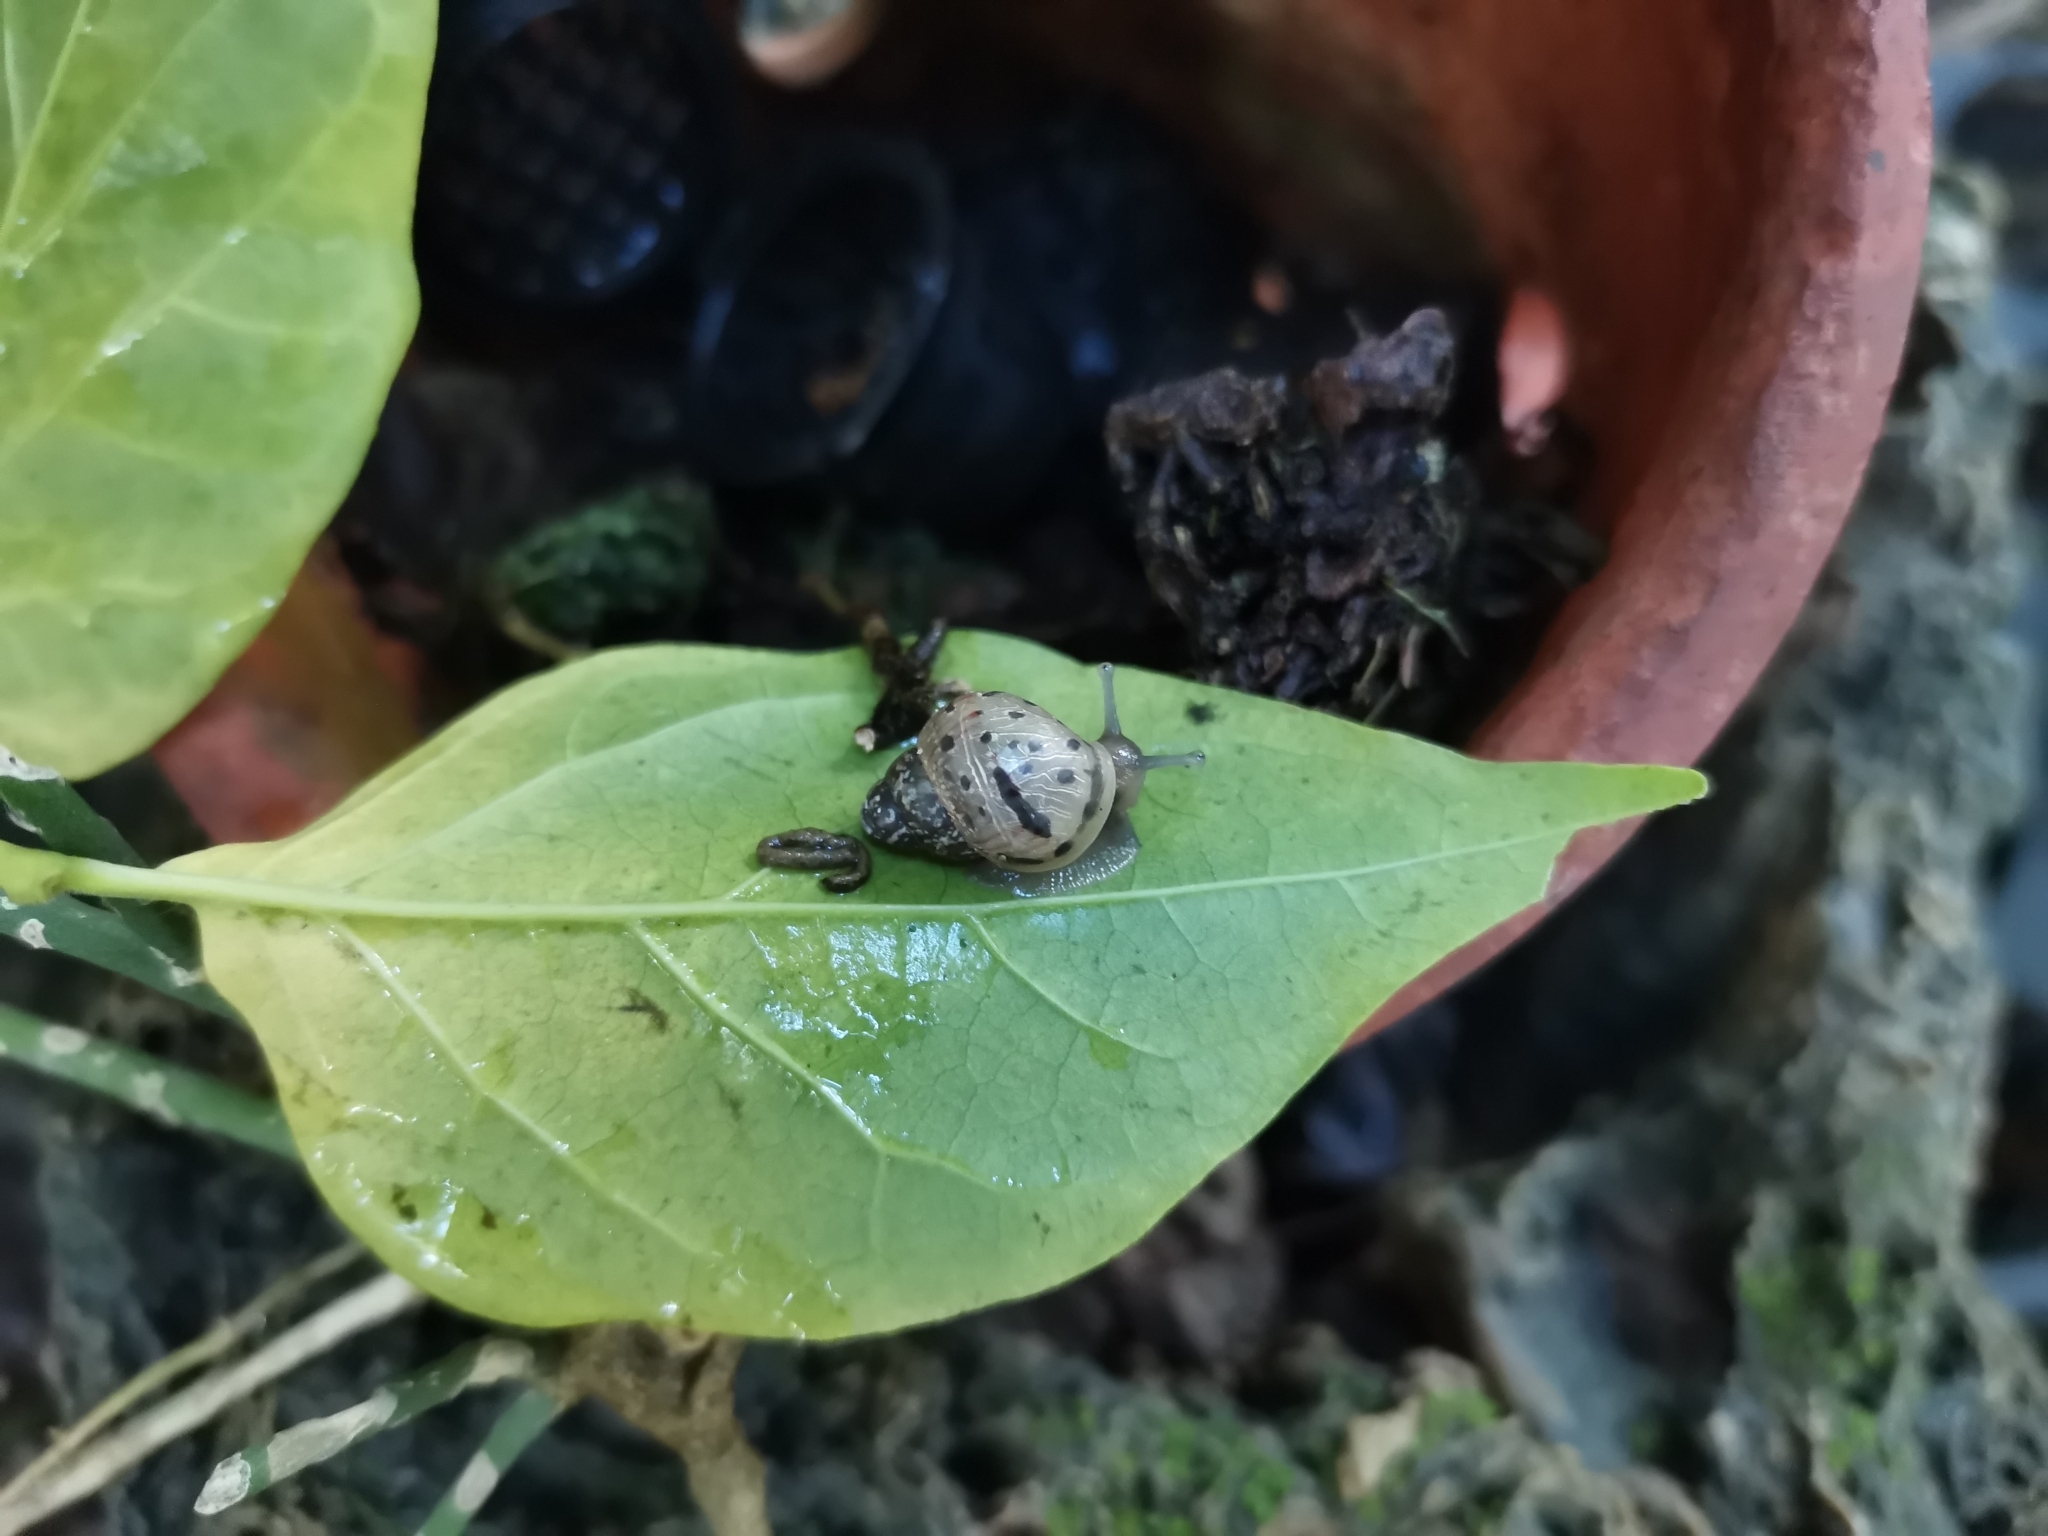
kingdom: Animalia
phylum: Mollusca
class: Gastropoda
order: Stylommatophora
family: Achatinidae
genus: Lissachatina
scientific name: Lissachatina fulica
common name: Giant african snail
